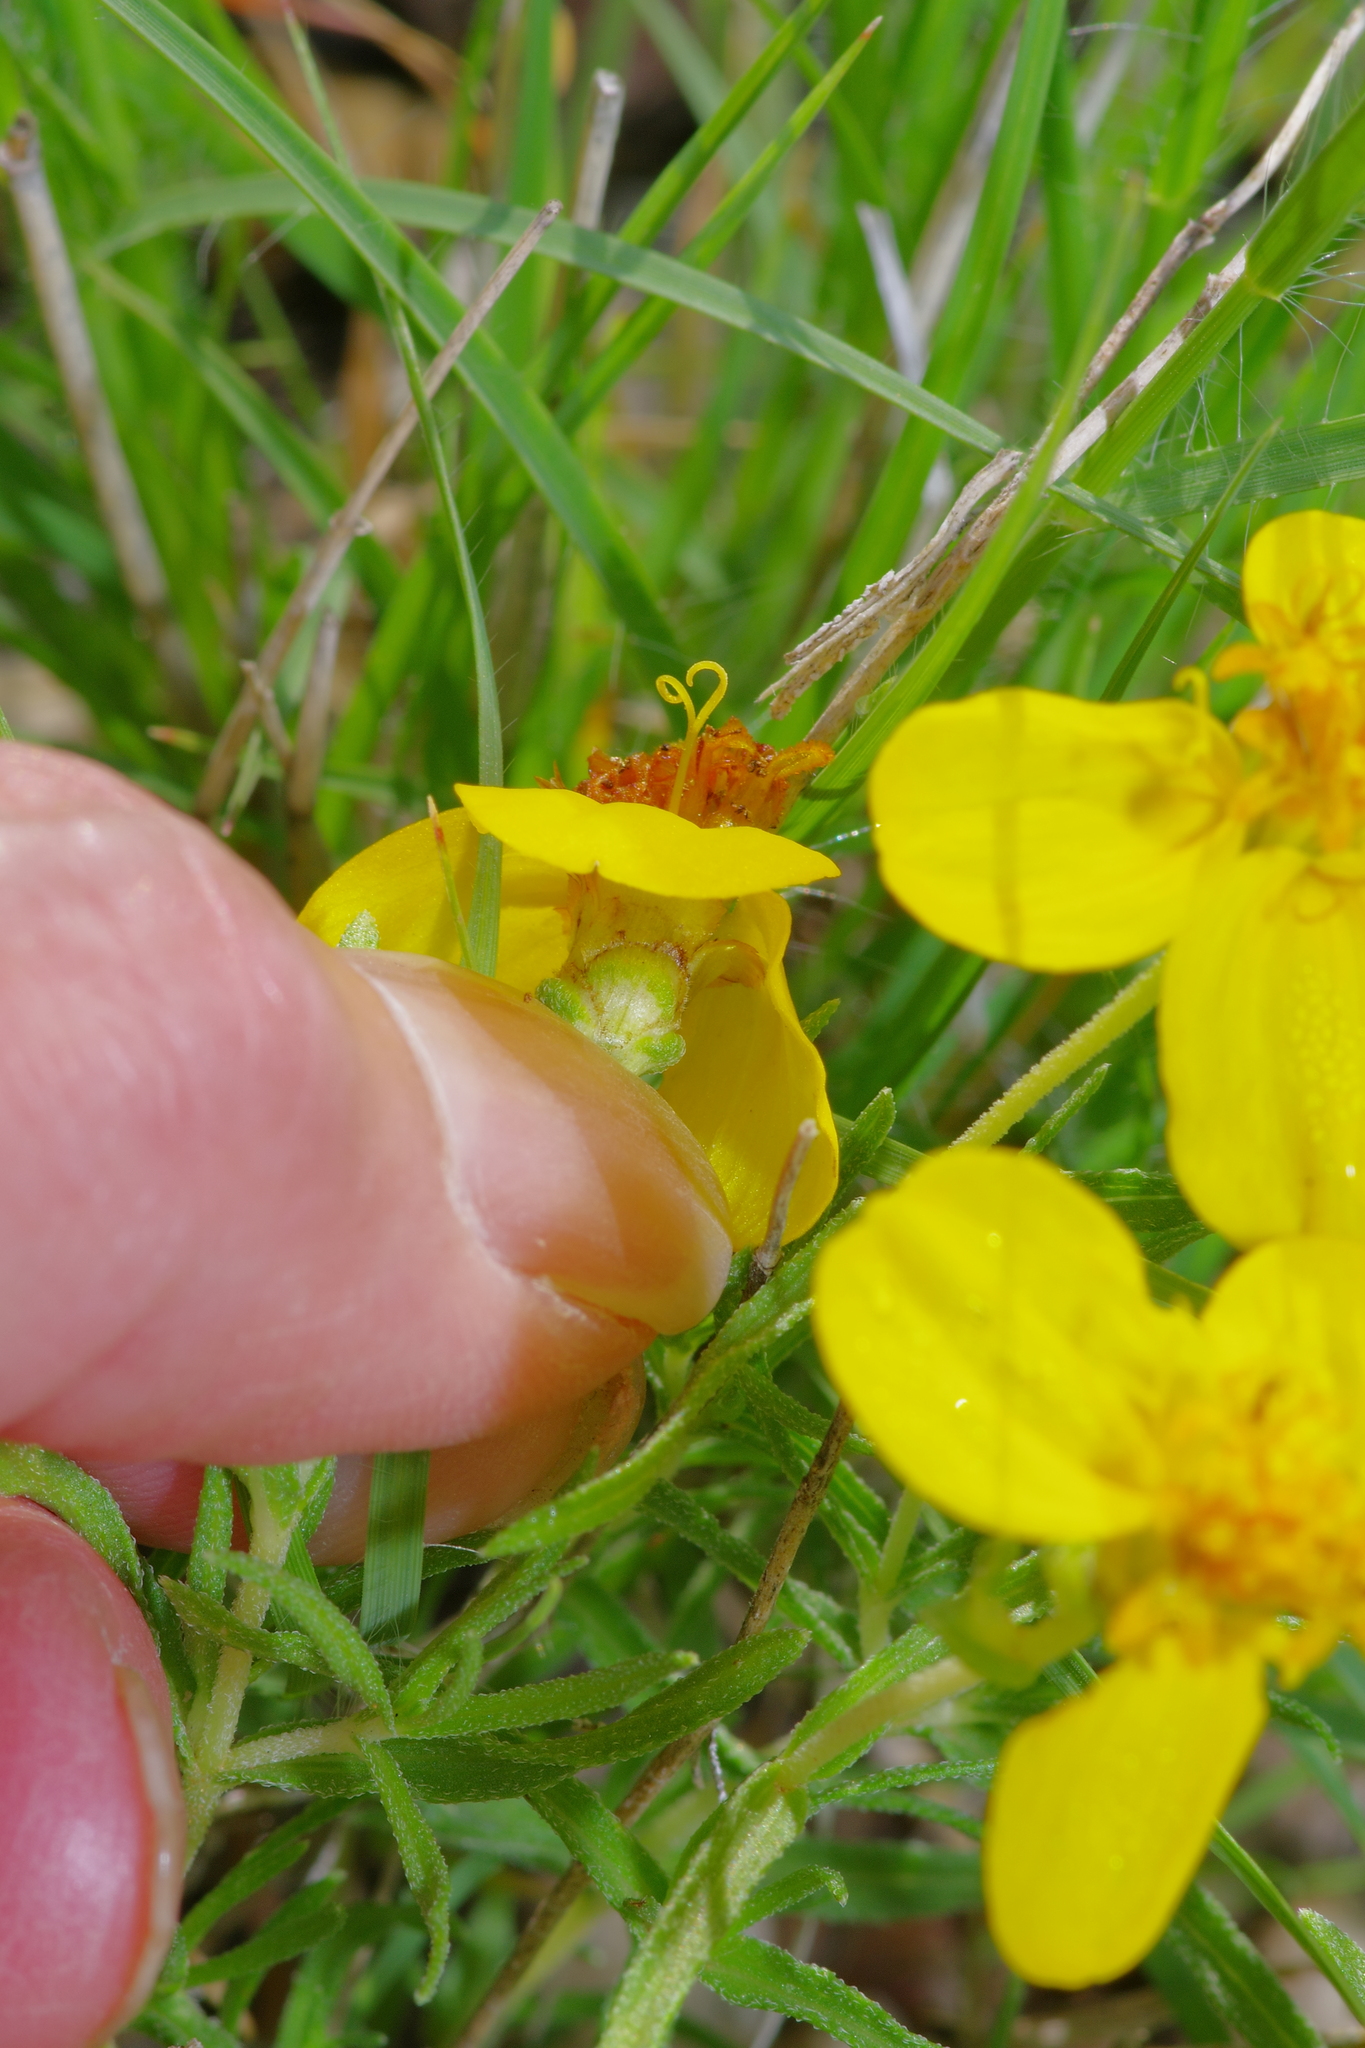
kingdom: Plantae
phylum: Tracheophyta
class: Magnoliopsida
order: Asterales
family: Asteraceae
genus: Zinnia
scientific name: Zinnia grandiflora
